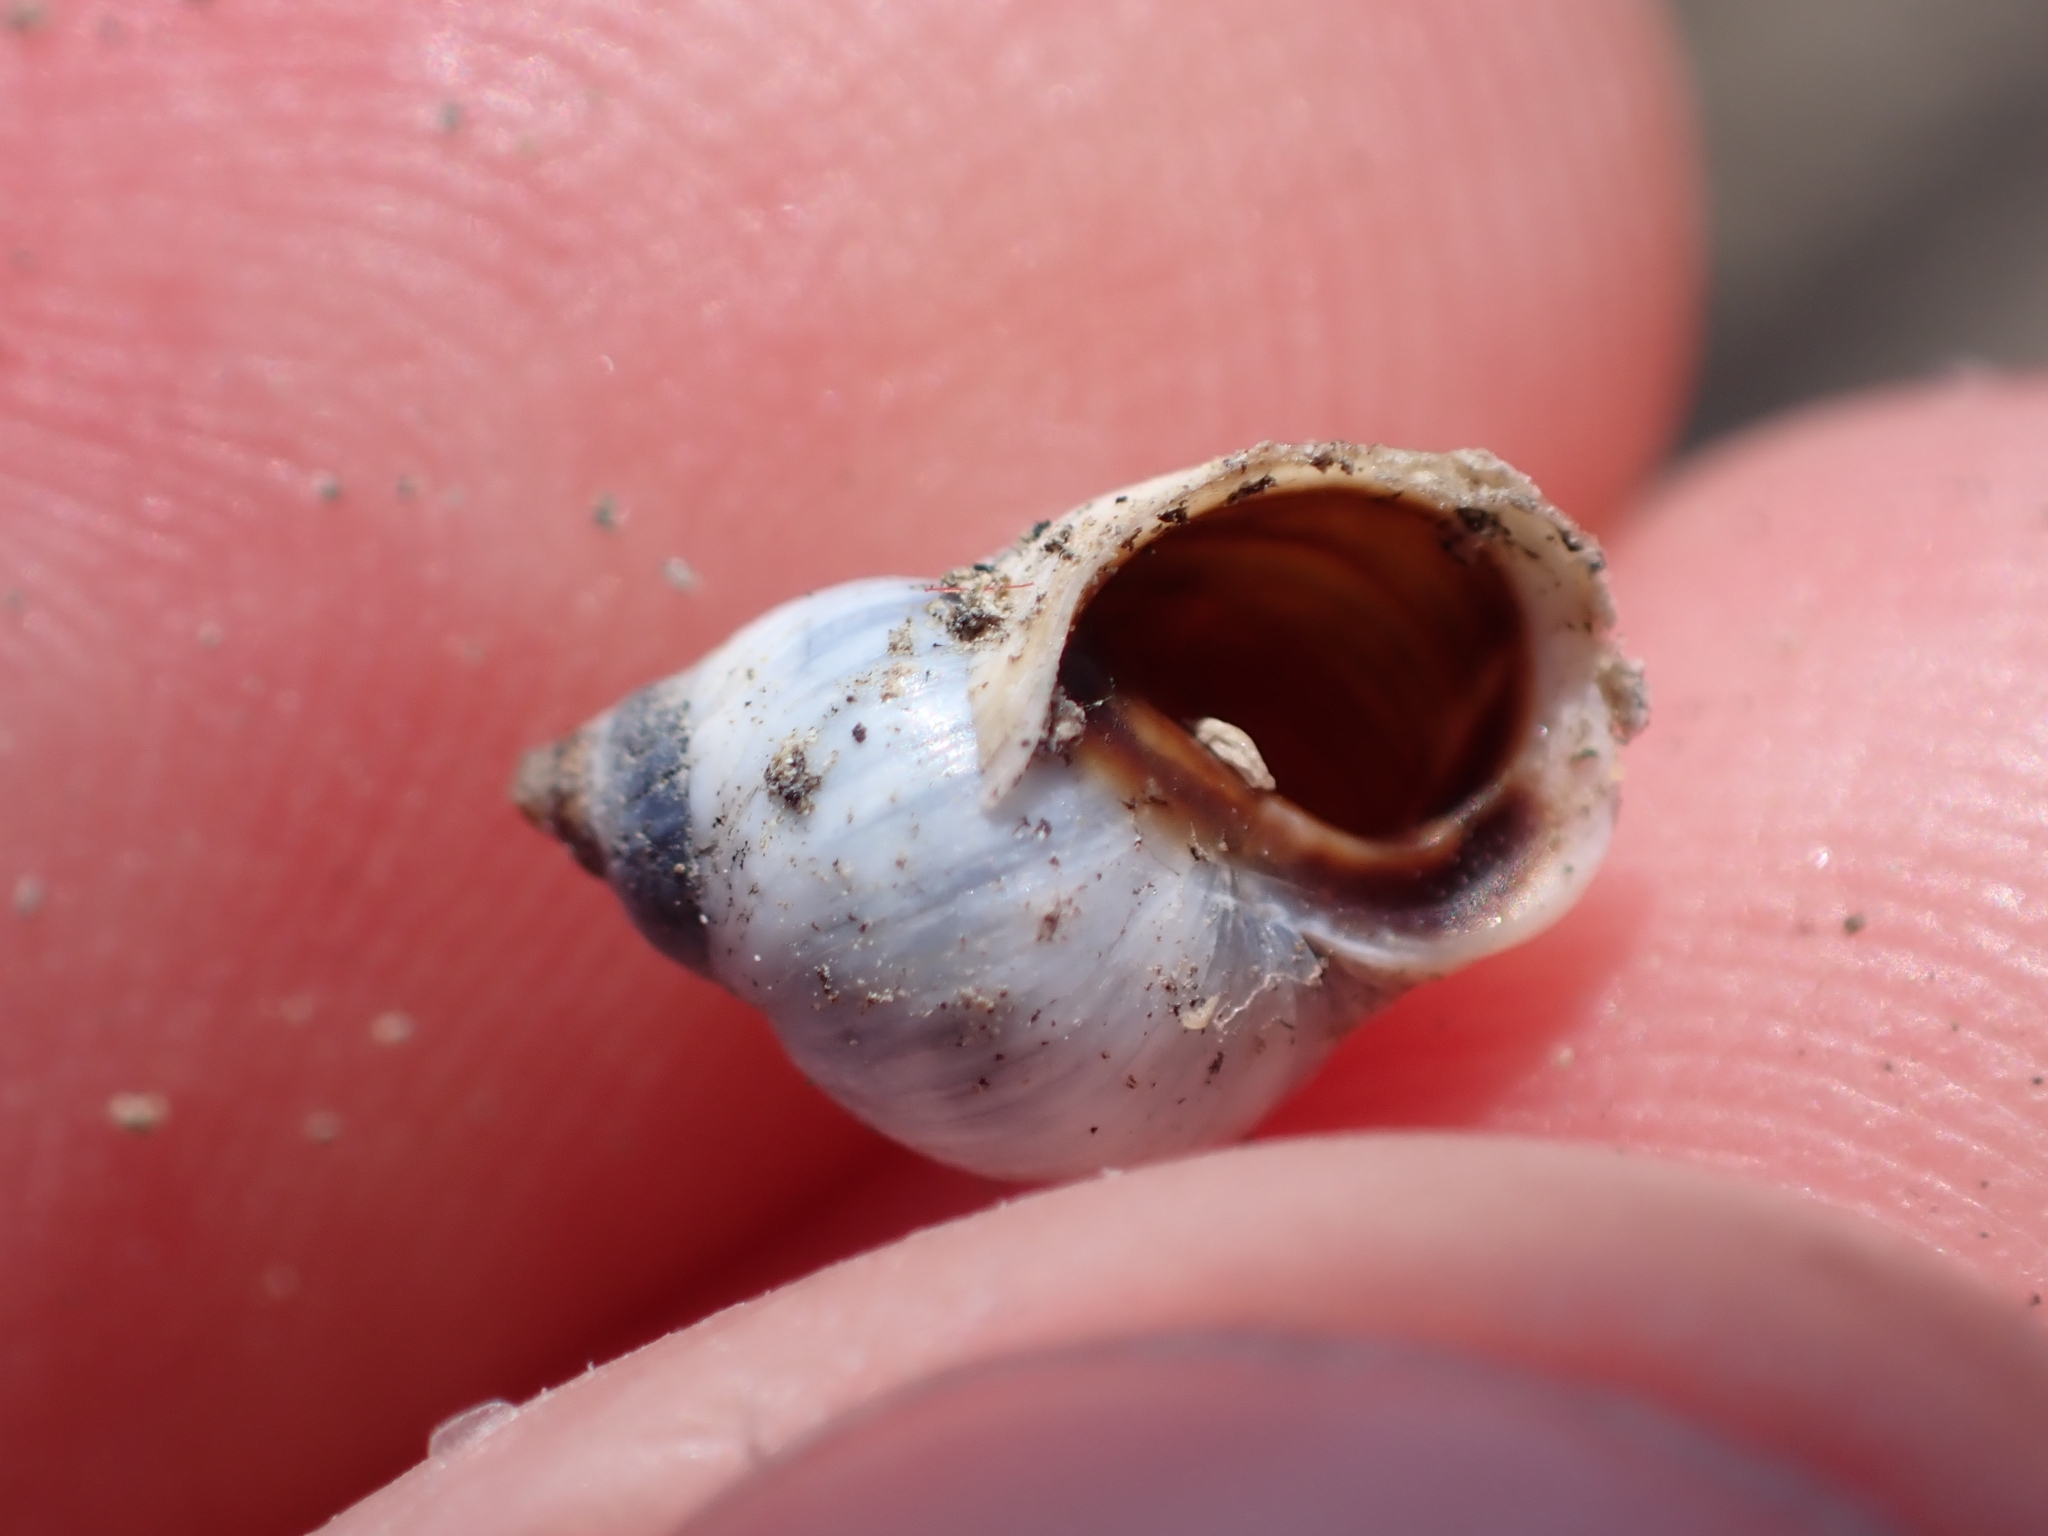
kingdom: Animalia
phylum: Mollusca
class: Gastropoda
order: Littorinimorpha
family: Littorinidae
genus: Melarhaphe
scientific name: Melarhaphe neritoides
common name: Small periwinkle
